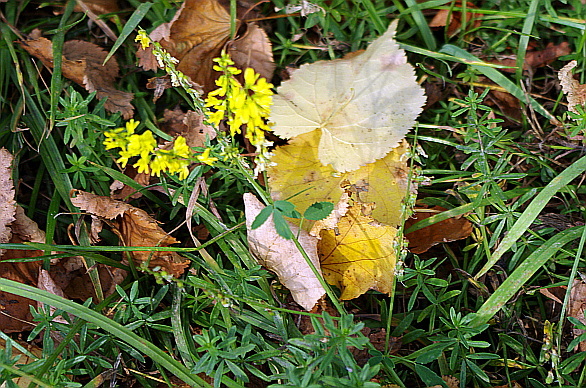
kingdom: Plantae
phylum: Tracheophyta
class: Magnoliopsida
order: Fabales
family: Fabaceae
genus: Melilotus
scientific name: Melilotus officinalis
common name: Sweetclover
